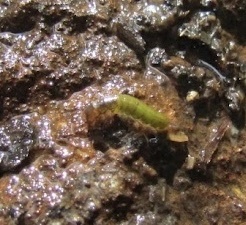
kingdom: Animalia
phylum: Arthropoda
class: Insecta
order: Trichoptera
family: Hydropsychidae
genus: Cheumatopsyche
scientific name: Cheumatopsyche analis
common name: Net-spinning caddisfly
